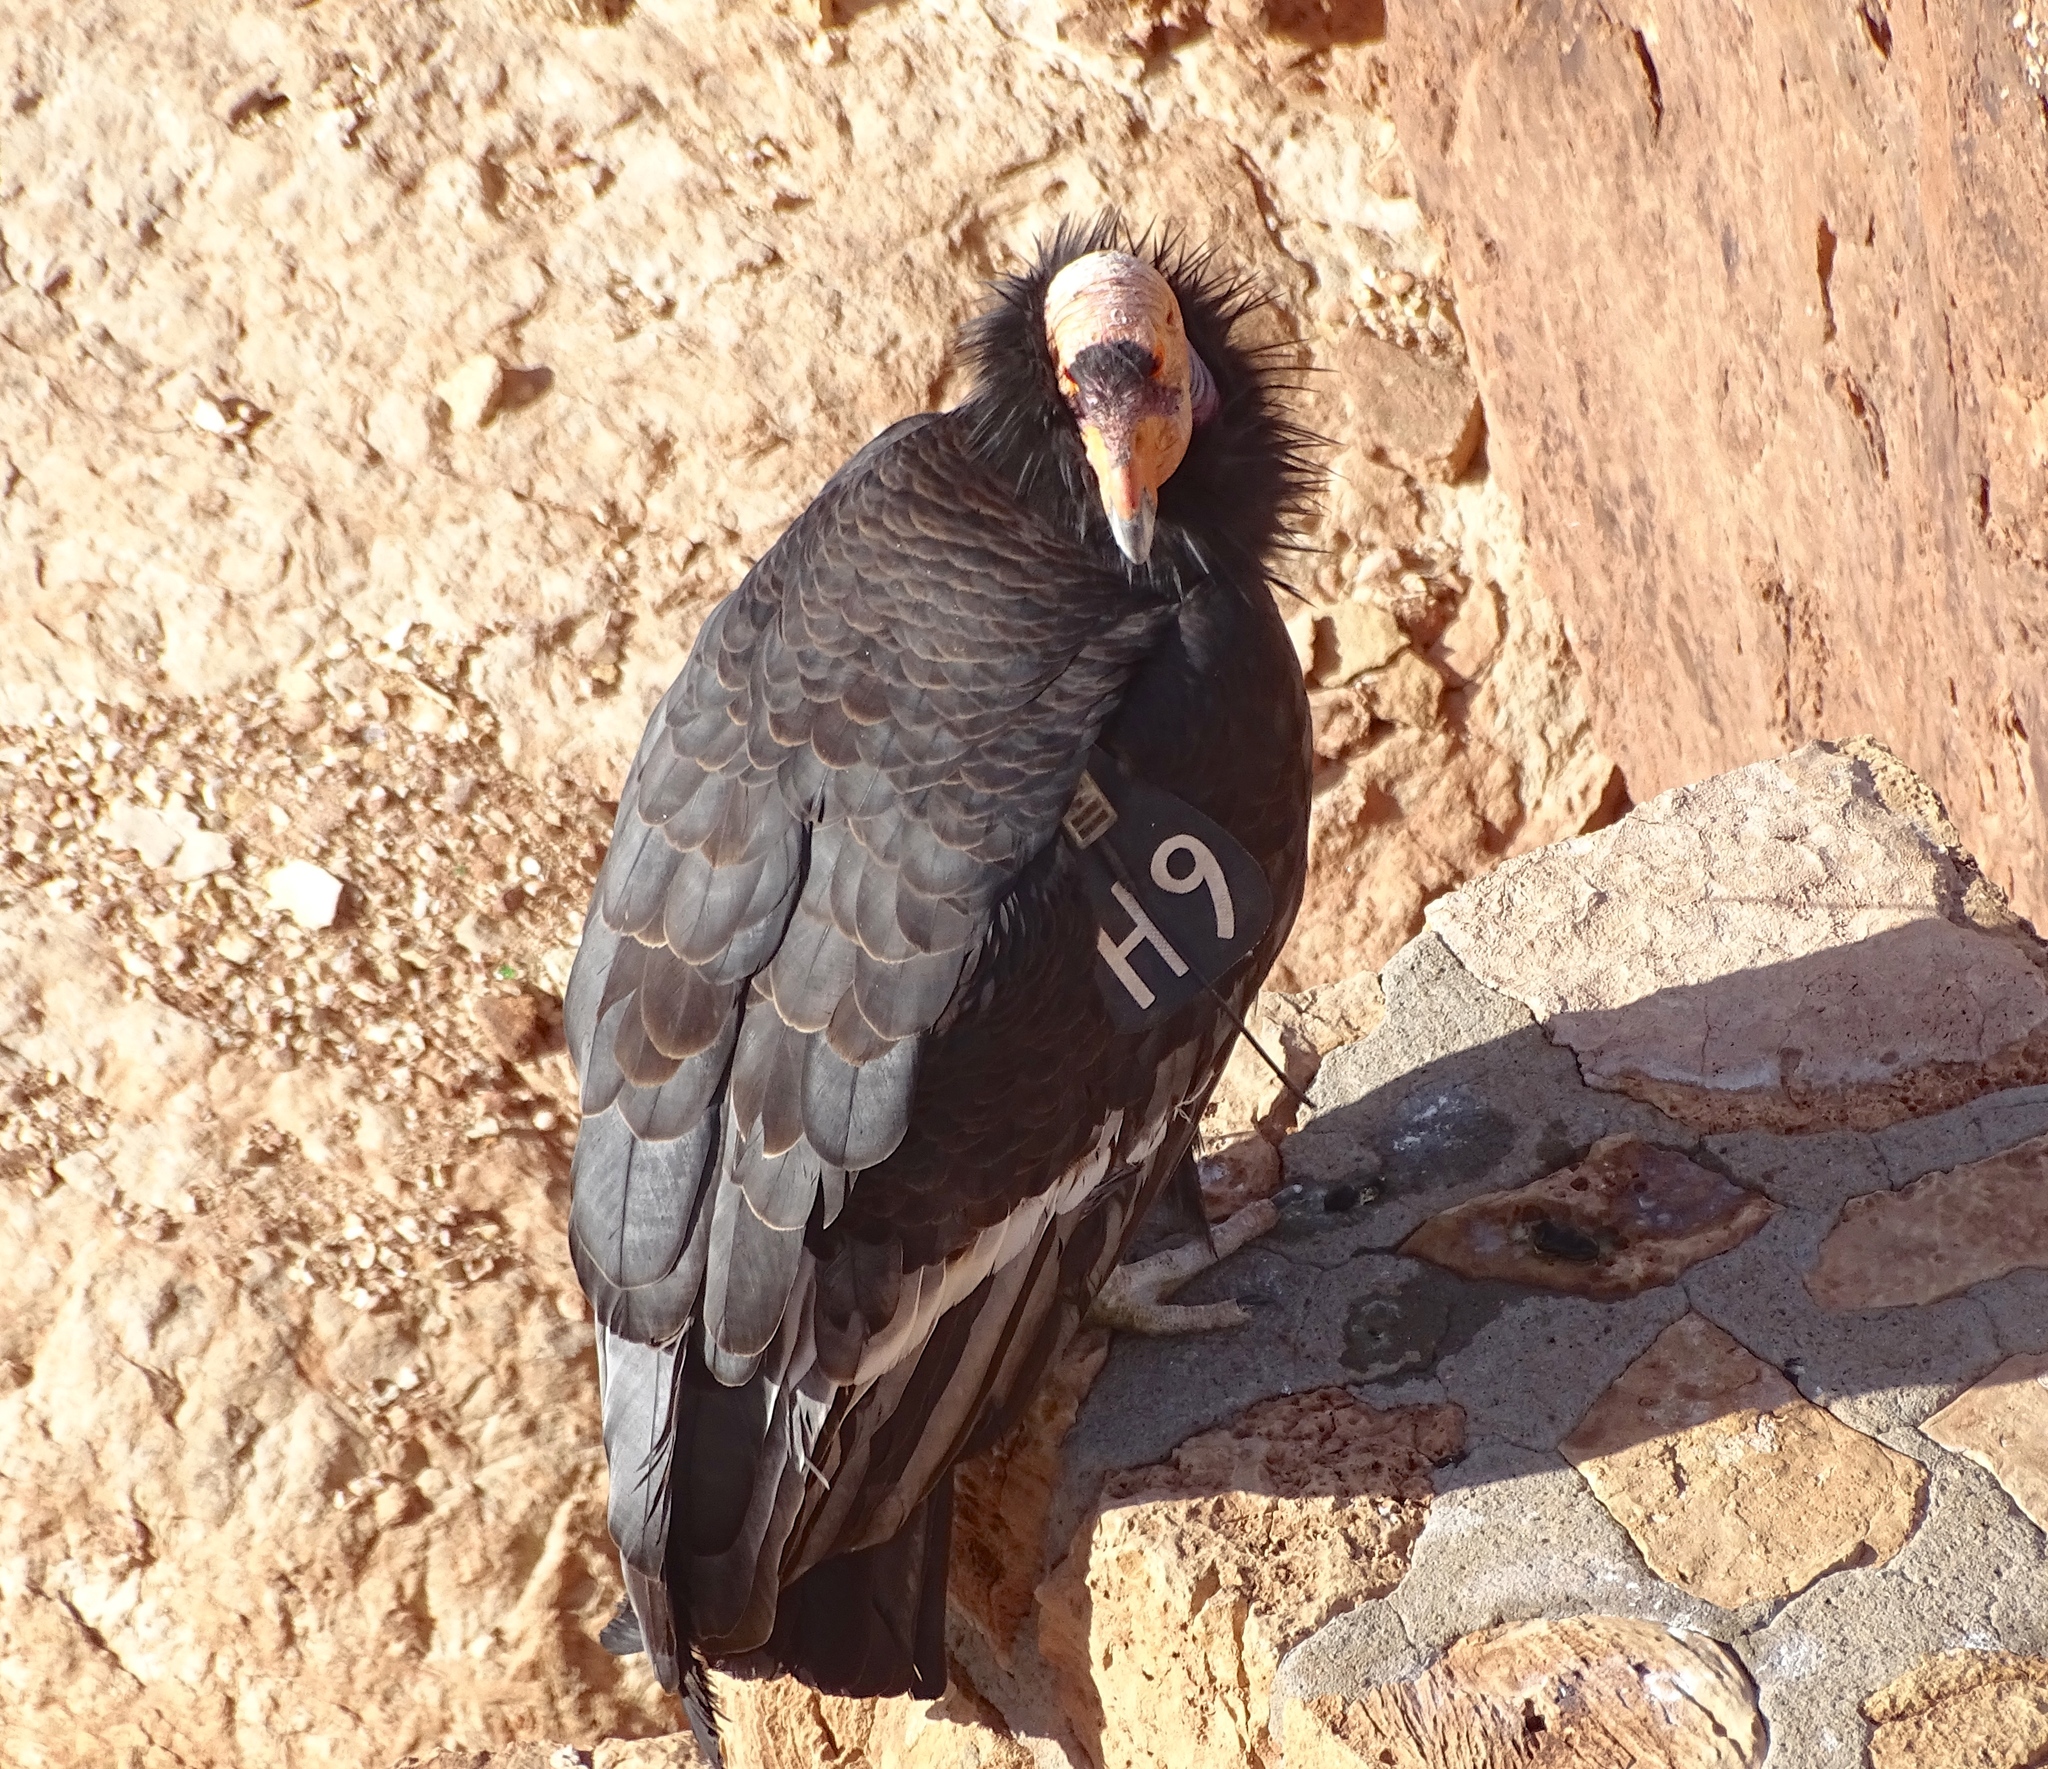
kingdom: Animalia
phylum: Chordata
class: Aves
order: Accipitriformes
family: Cathartidae
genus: Gymnogyps
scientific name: Gymnogyps californianus
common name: California condor
